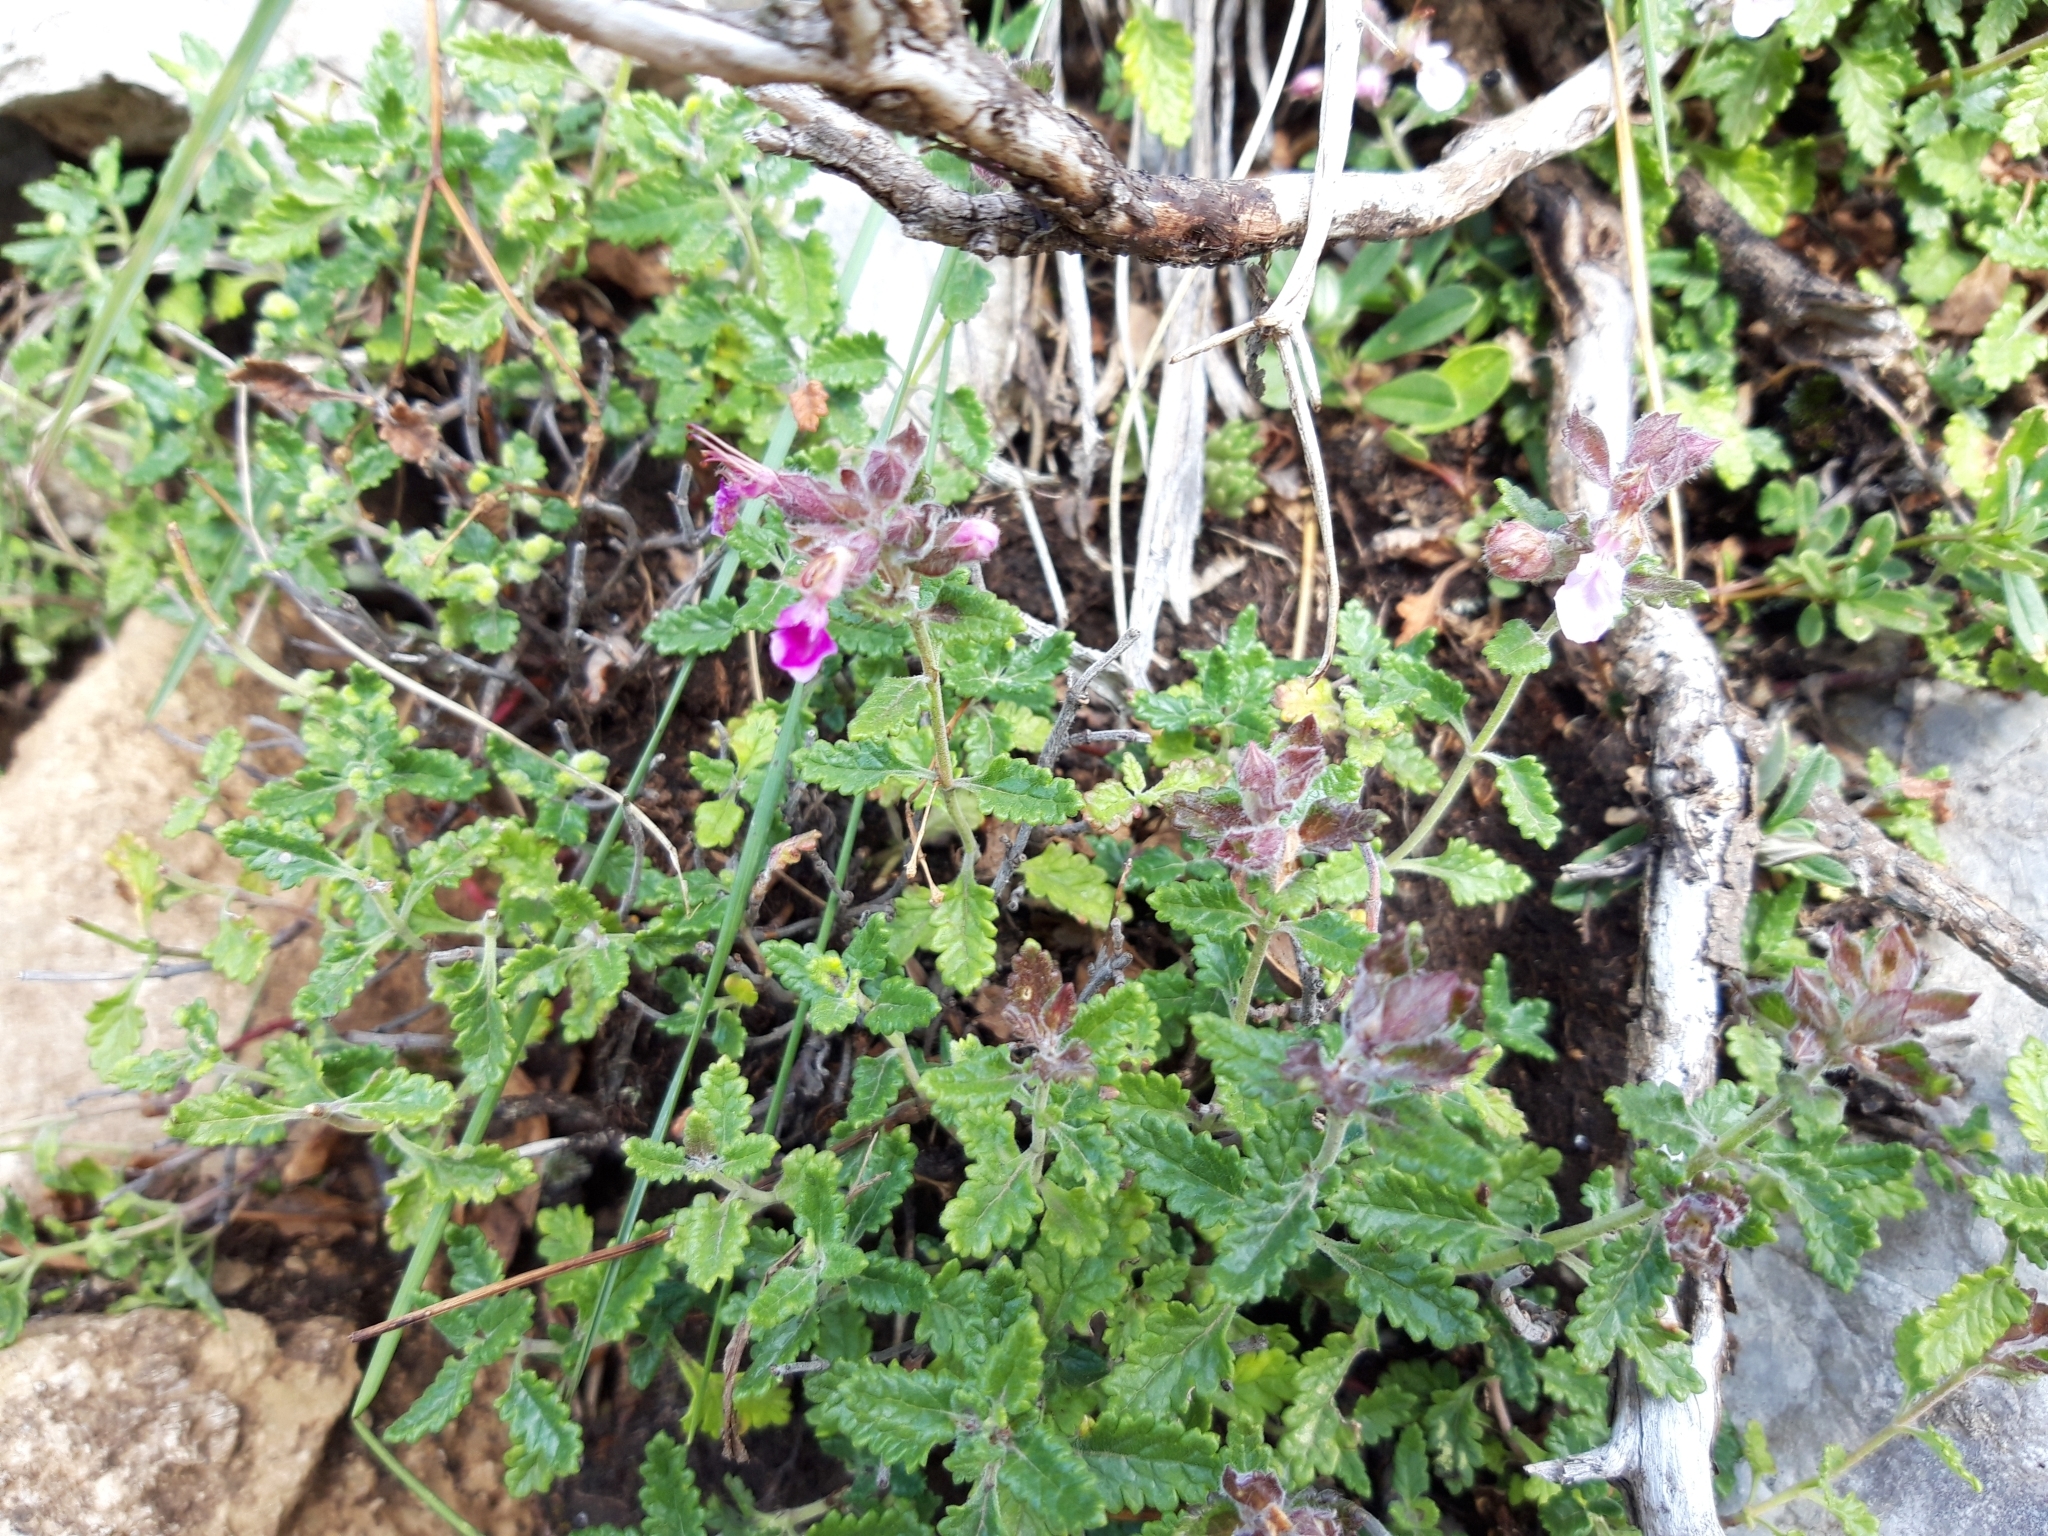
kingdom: Plantae
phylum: Tracheophyta
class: Magnoliopsida
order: Lamiales
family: Lamiaceae
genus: Teucrium
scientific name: Teucrium chamaedrys
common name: Wall germander
